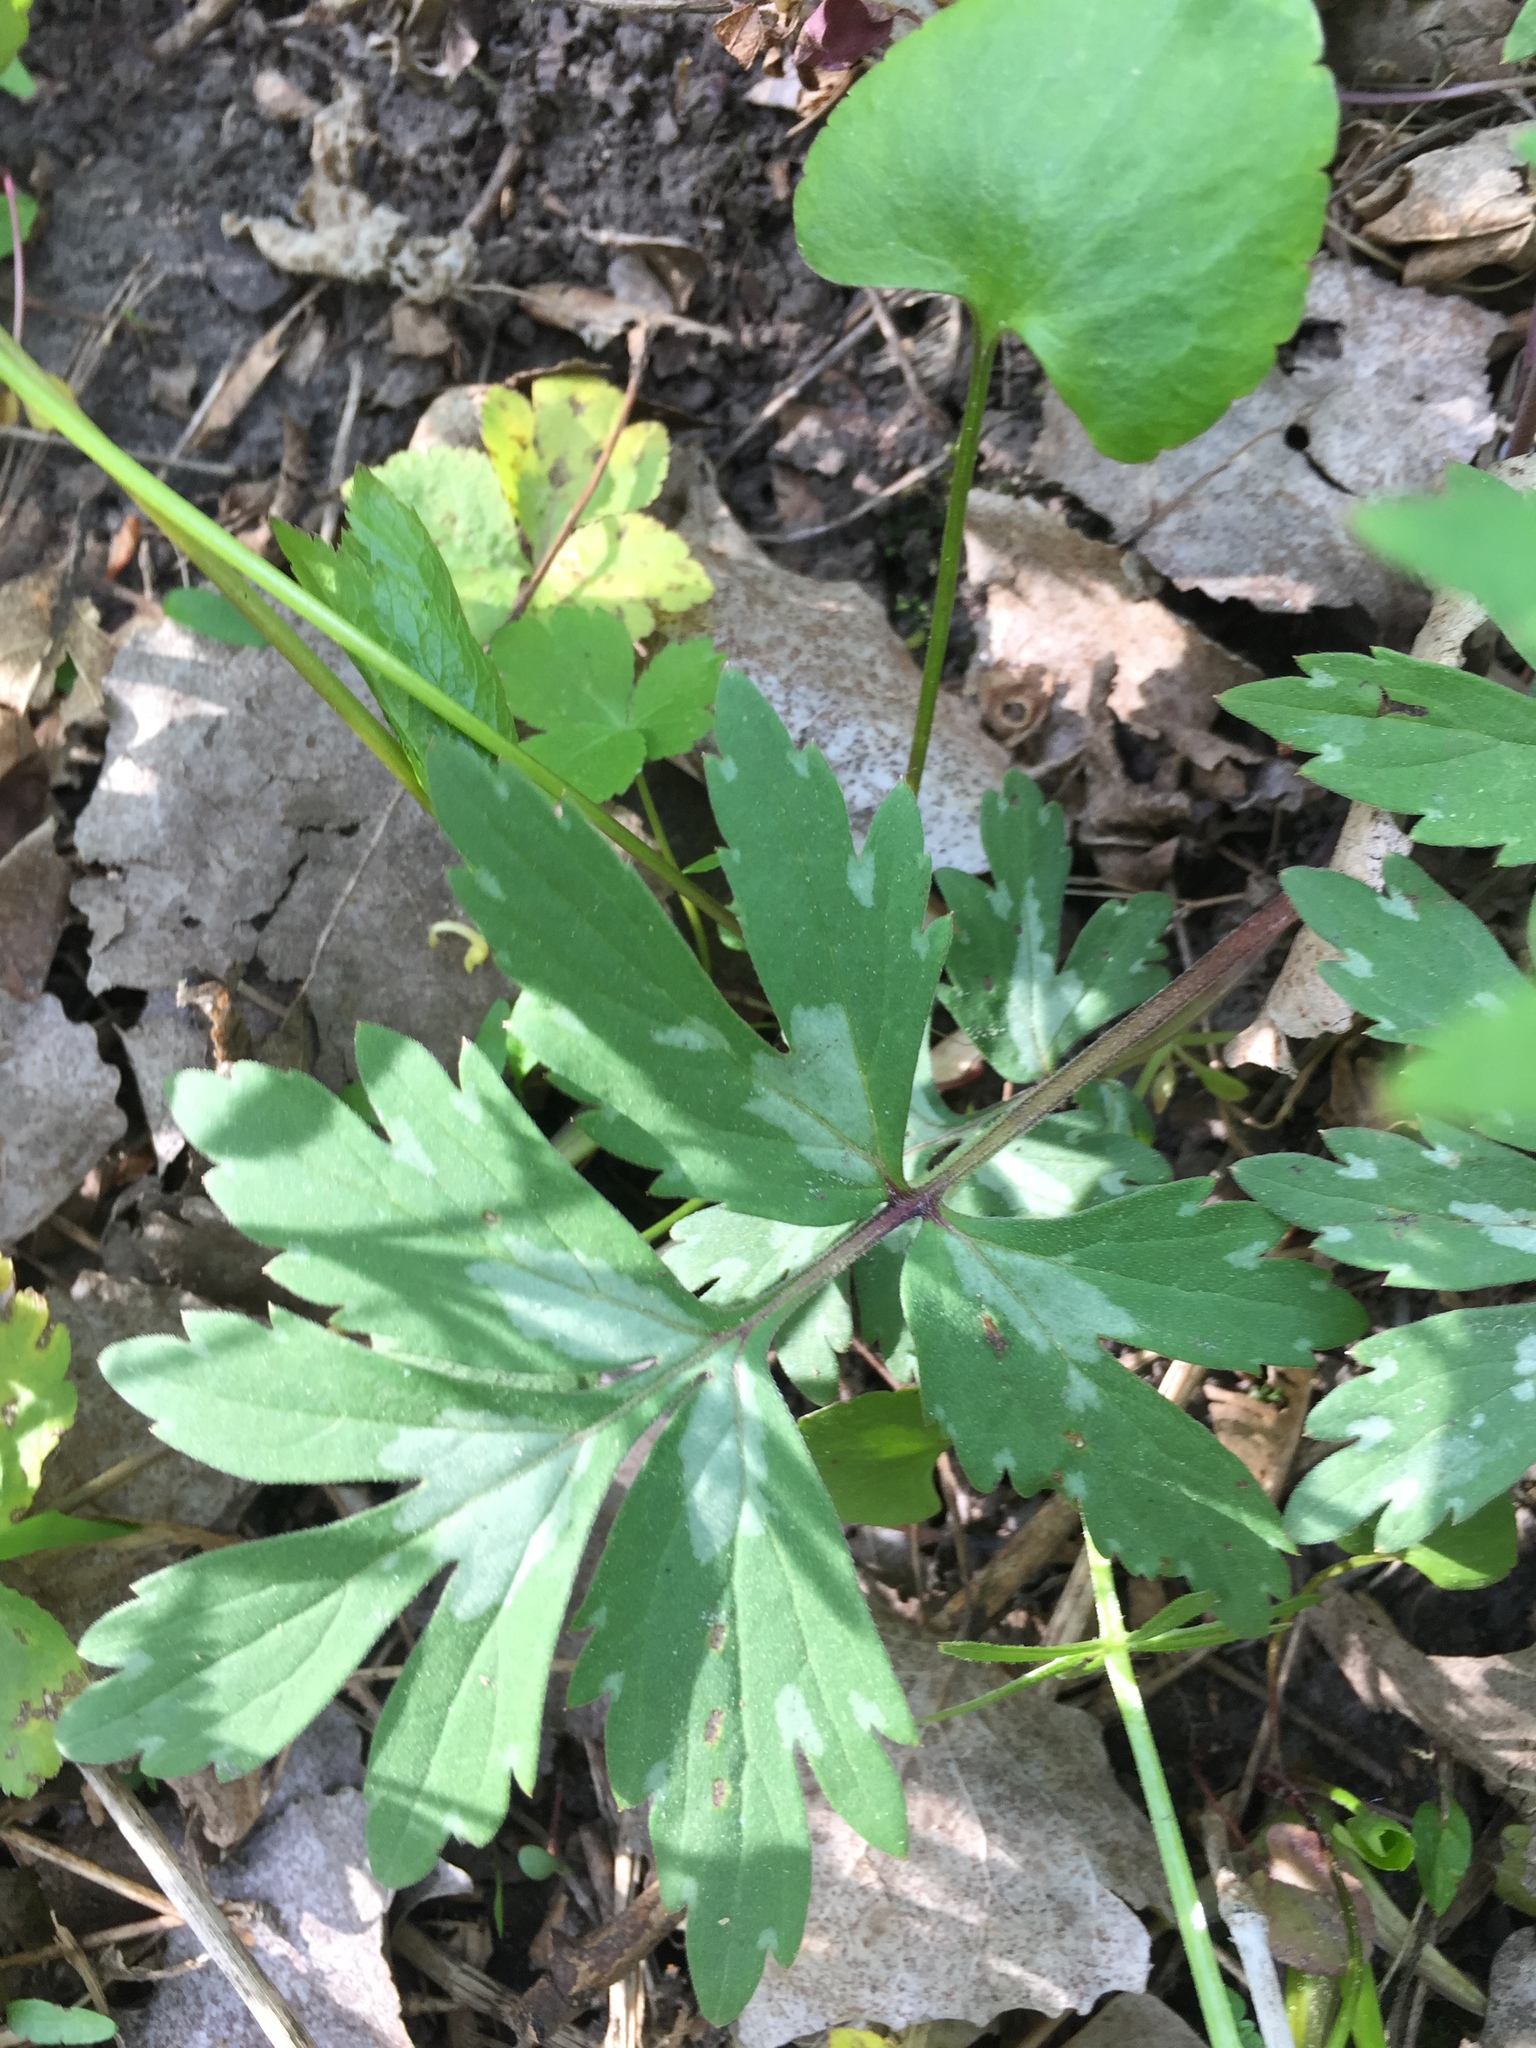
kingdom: Plantae
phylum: Tracheophyta
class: Magnoliopsida
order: Boraginales
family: Hydrophyllaceae
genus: Hydrophyllum
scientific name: Hydrophyllum virginianum
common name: Virginia waterleaf
